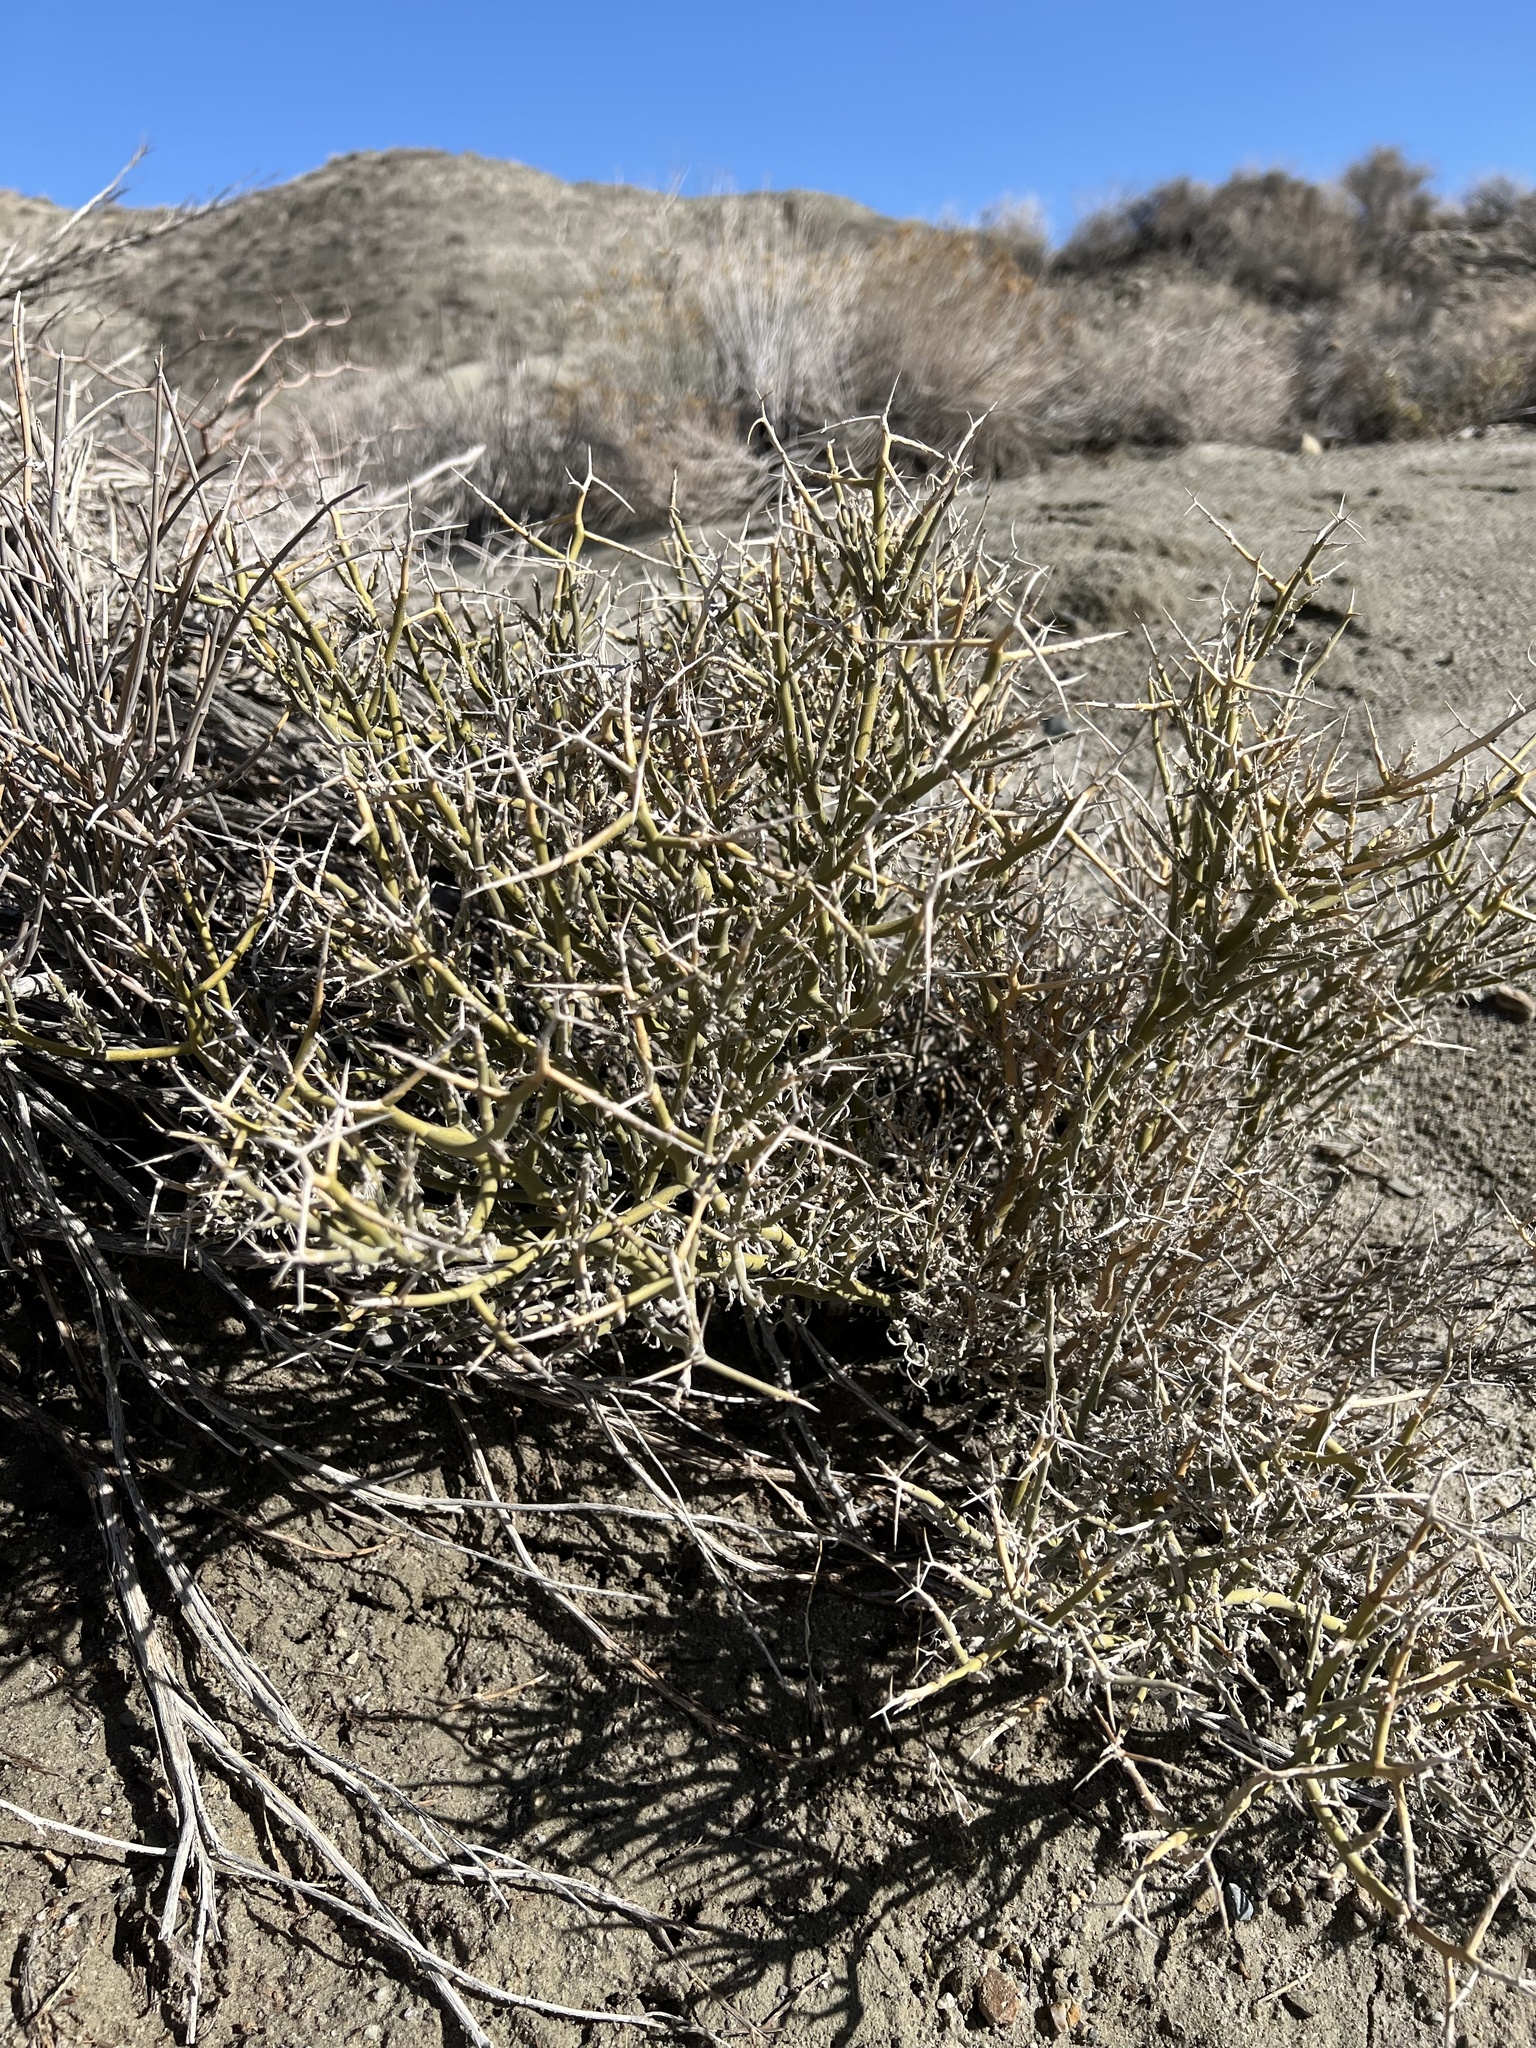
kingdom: Plantae
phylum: Tracheophyta
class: Magnoliopsida
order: Lamiales
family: Oleaceae
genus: Menodora
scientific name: Menodora spinescens
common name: Spiny menodora
